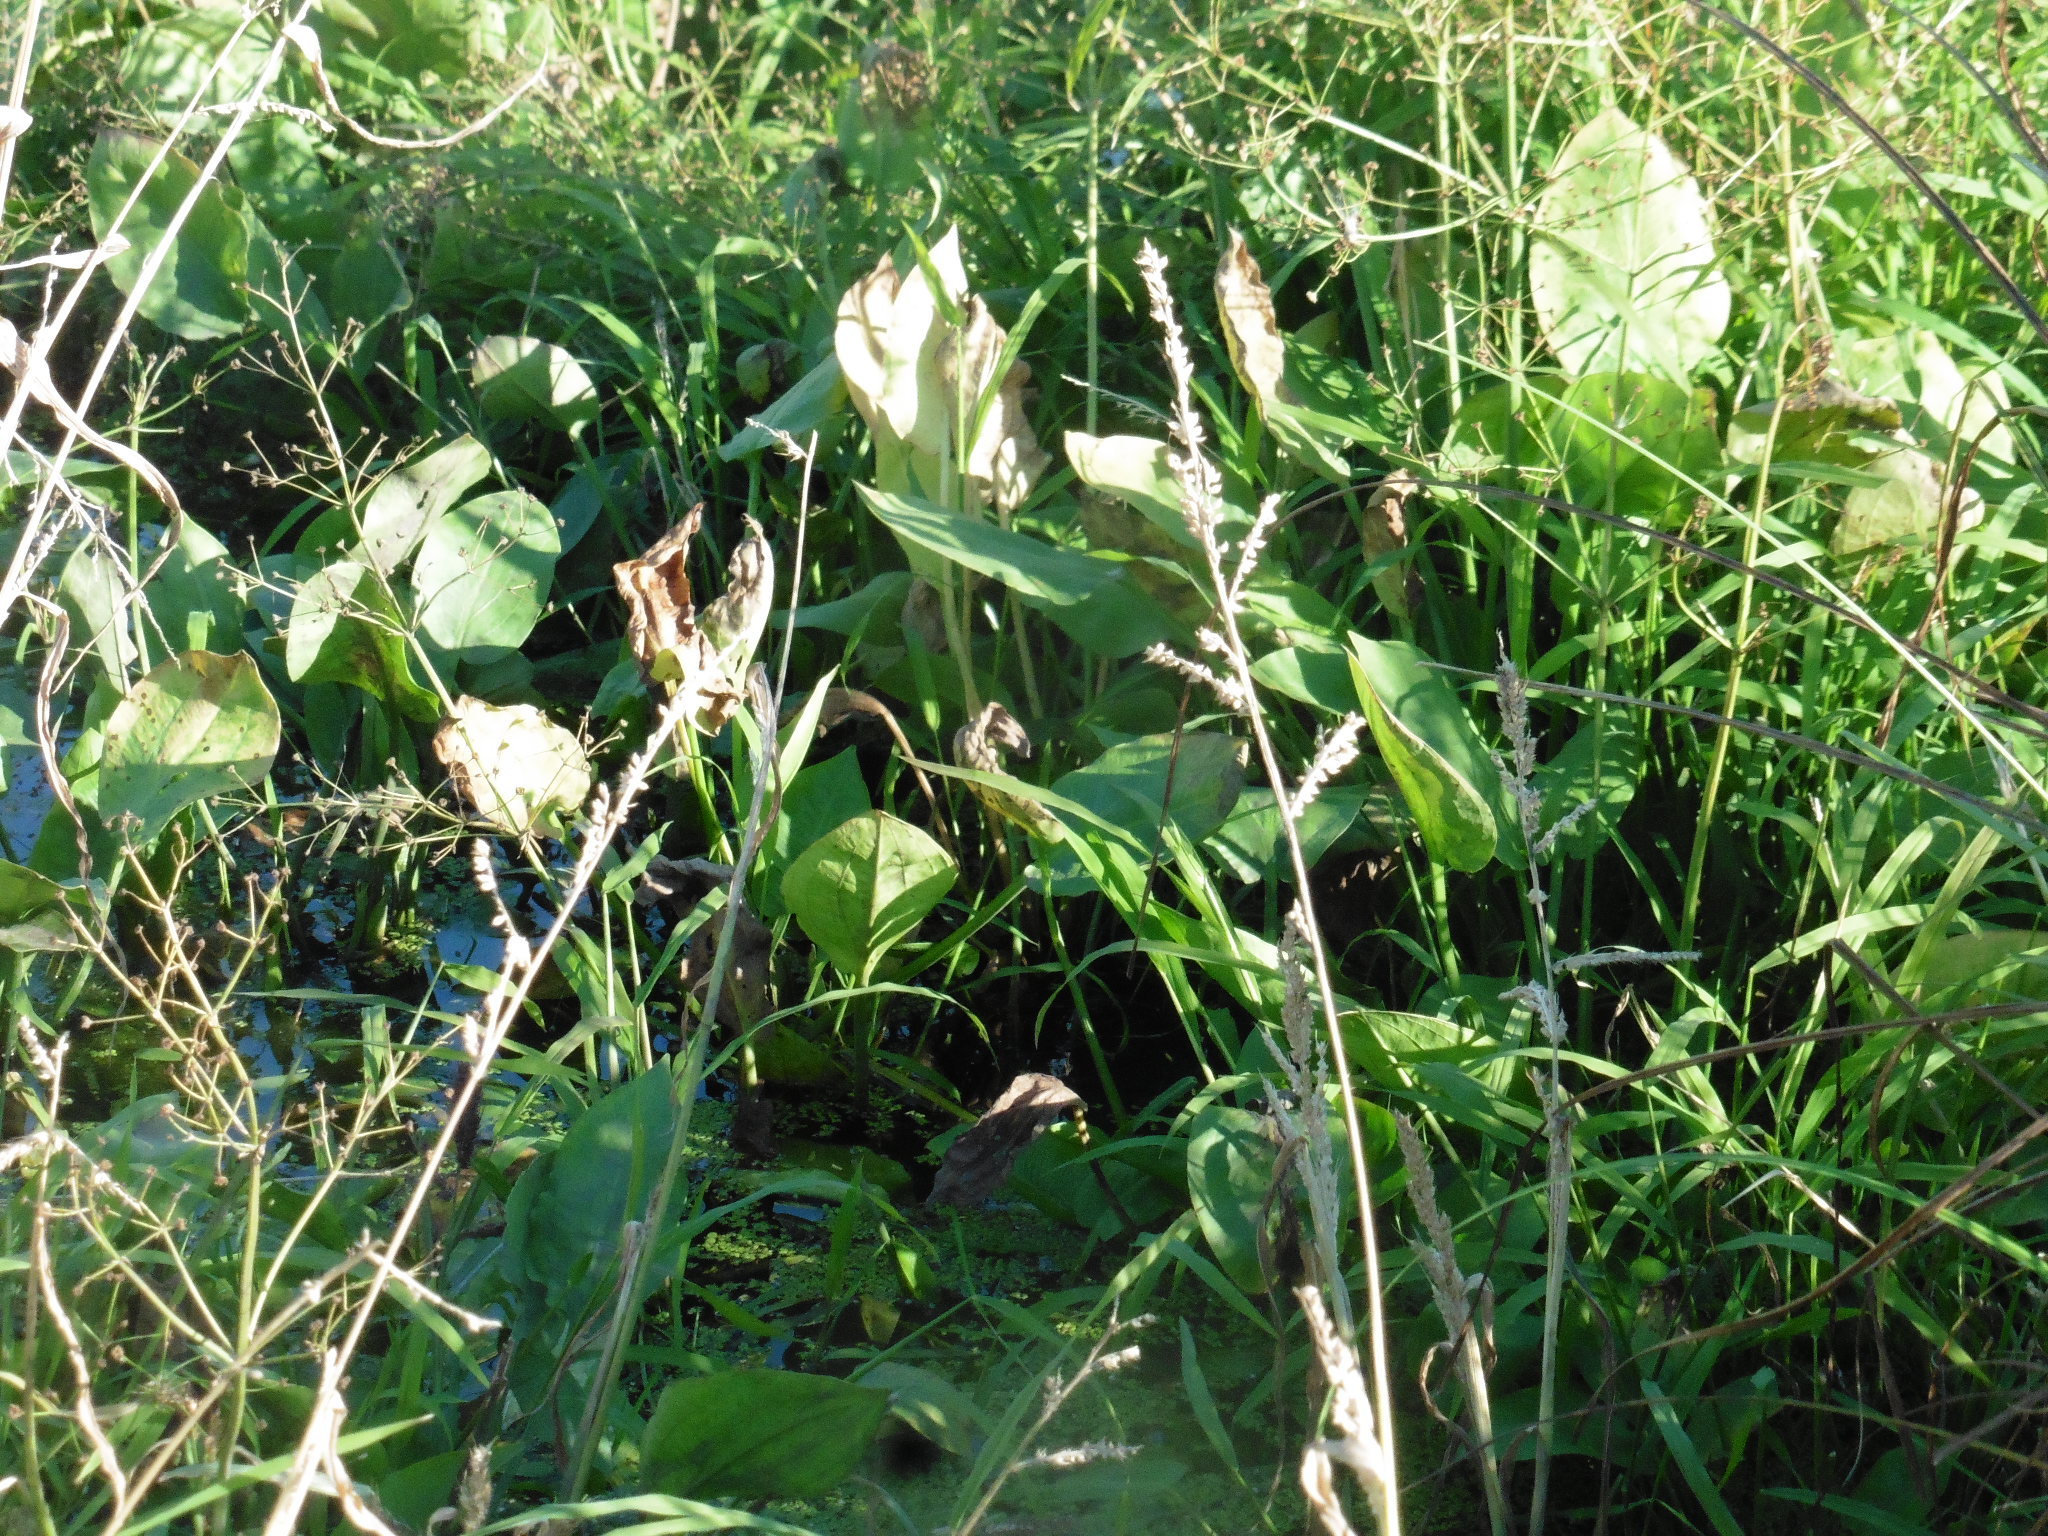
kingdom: Plantae
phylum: Tracheophyta
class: Liliopsida
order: Alismatales
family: Alismataceae
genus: Alisma
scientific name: Alisma plantago-aquatica
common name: Water-plantain
